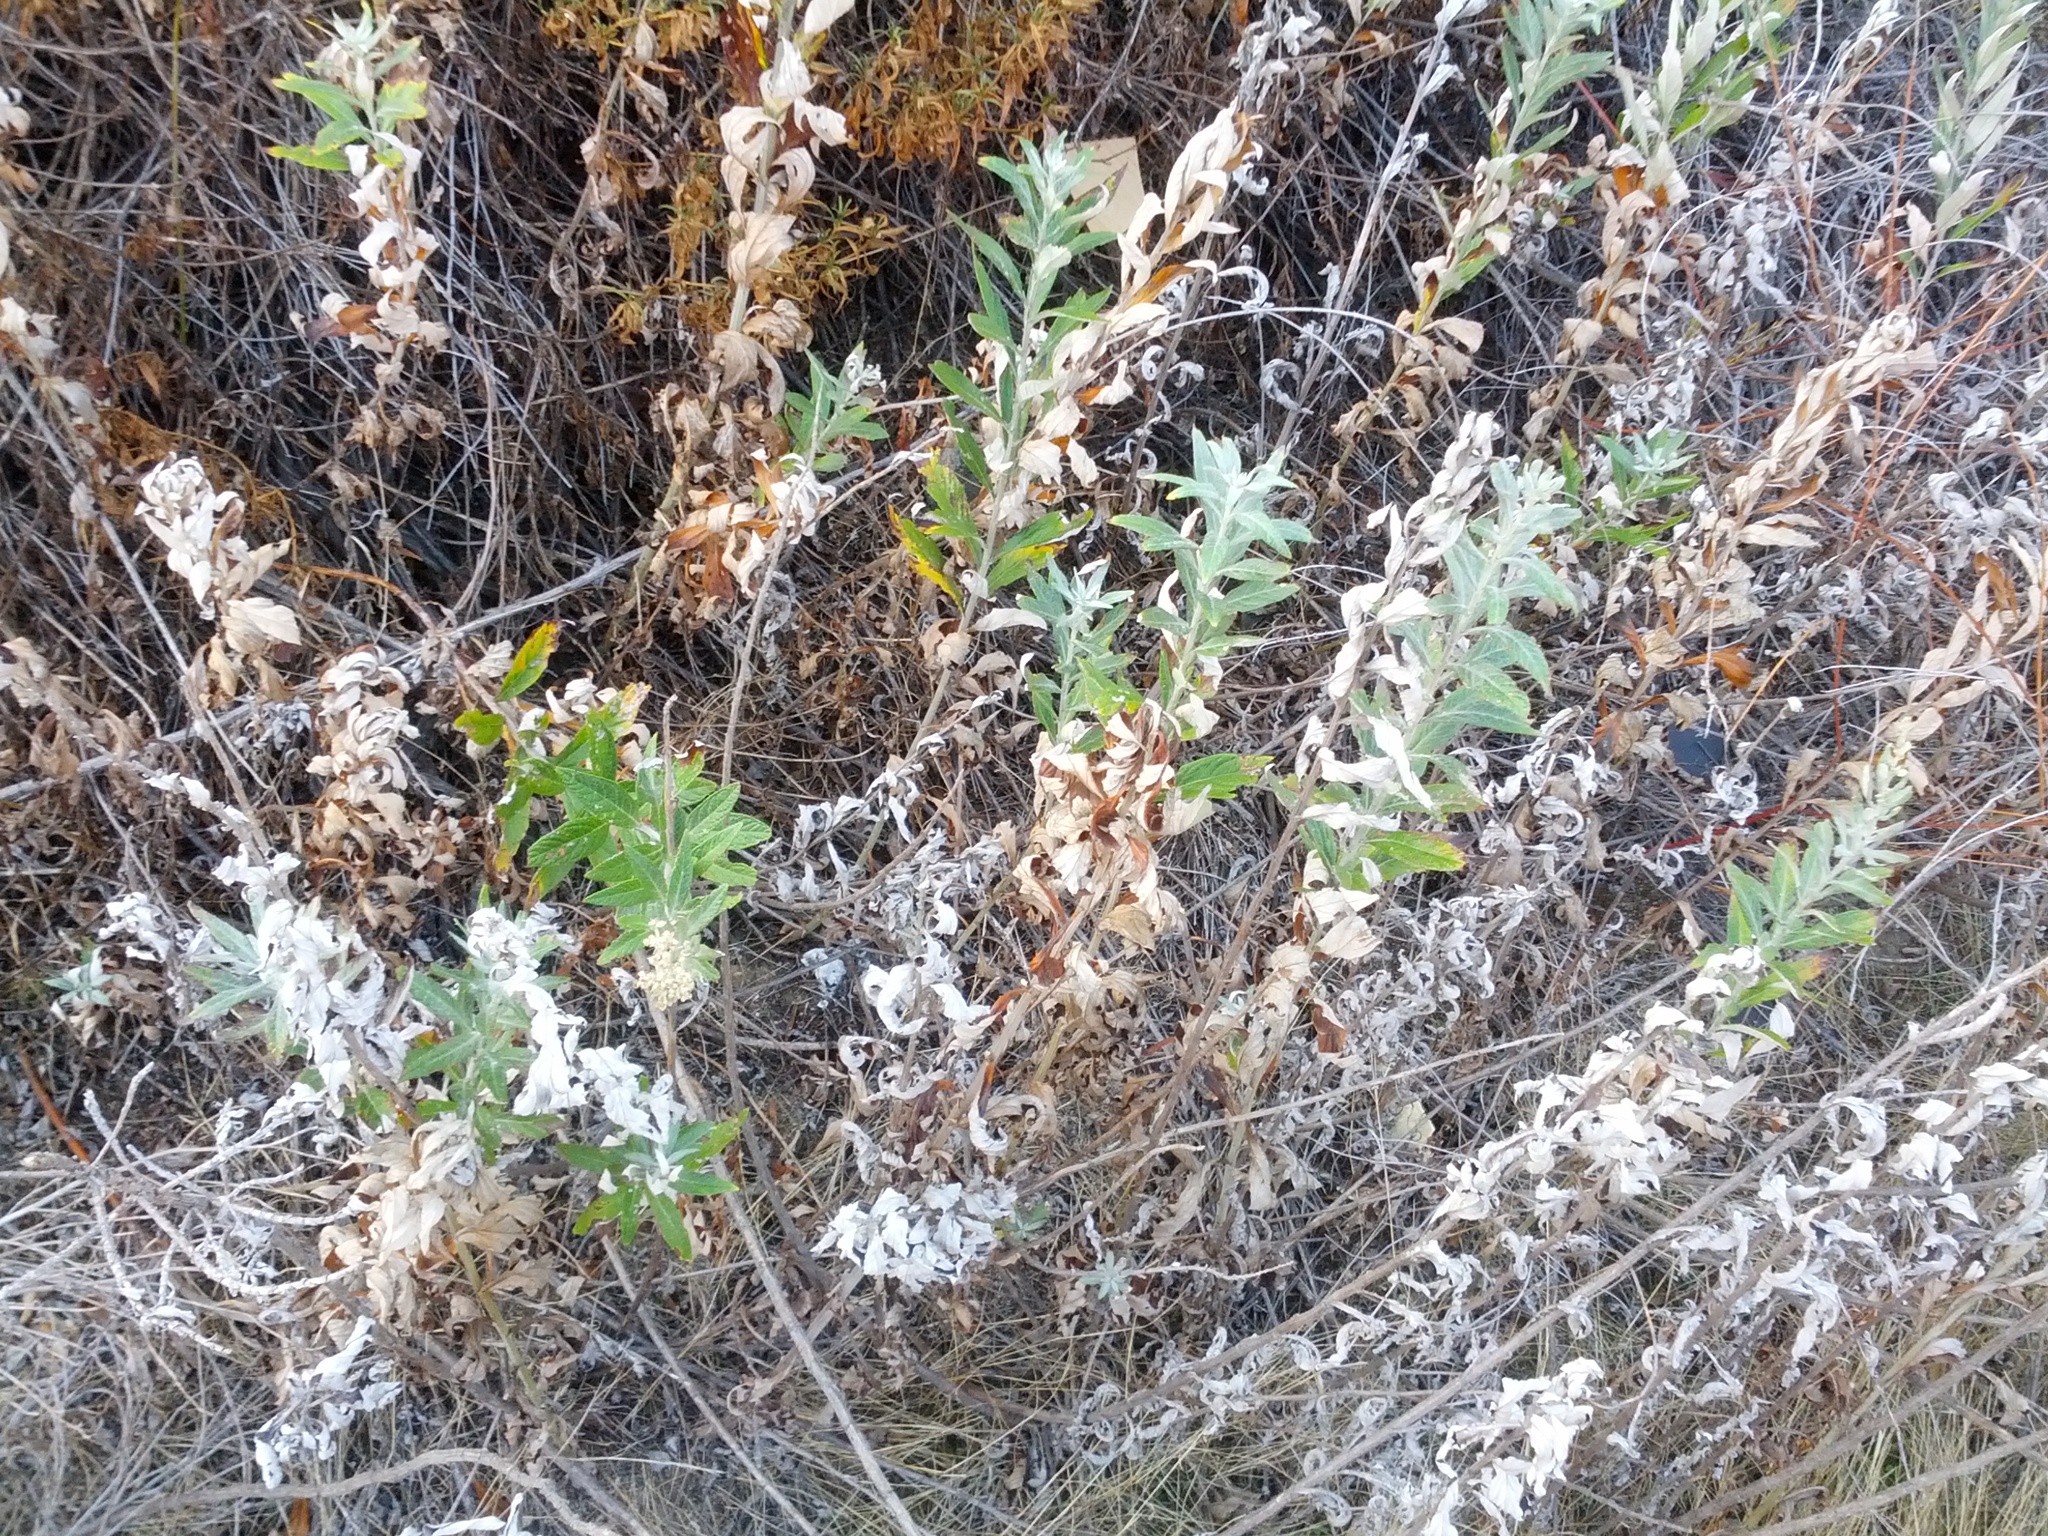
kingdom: Plantae
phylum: Tracheophyta
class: Magnoliopsida
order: Asterales
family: Asteraceae
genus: Artemisia
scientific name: Artemisia douglasiana
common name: Northwest mugwort
